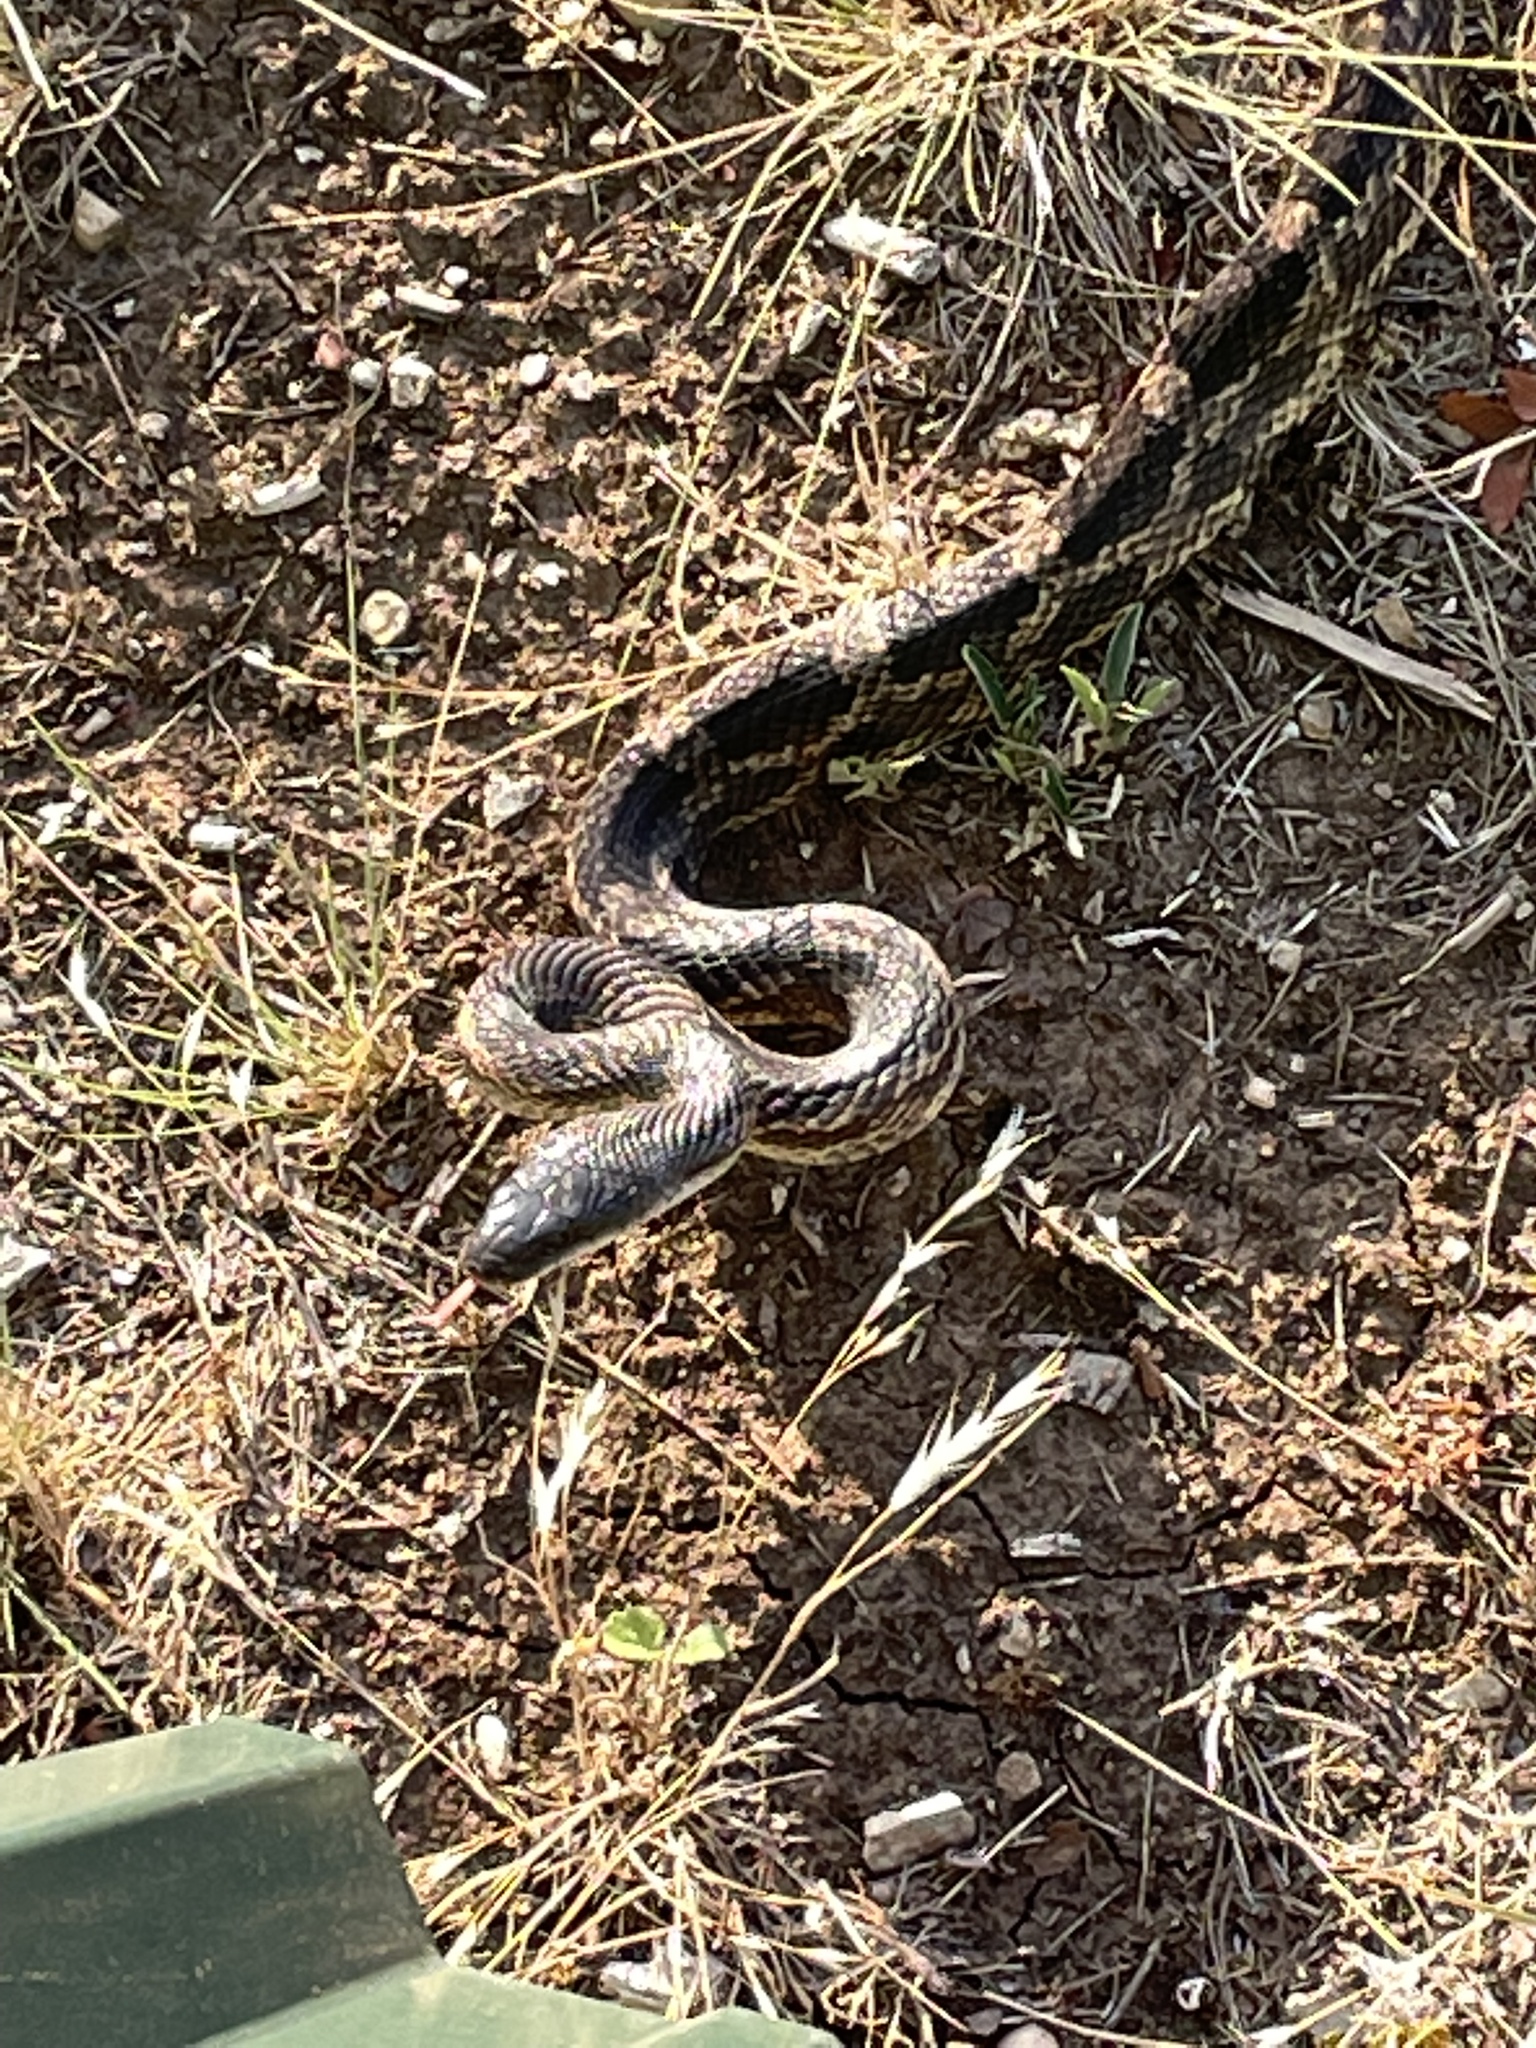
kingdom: Animalia
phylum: Chordata
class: Squamata
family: Colubridae
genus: Pantherophis
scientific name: Pantherophis obsoletus
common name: Black rat snake
